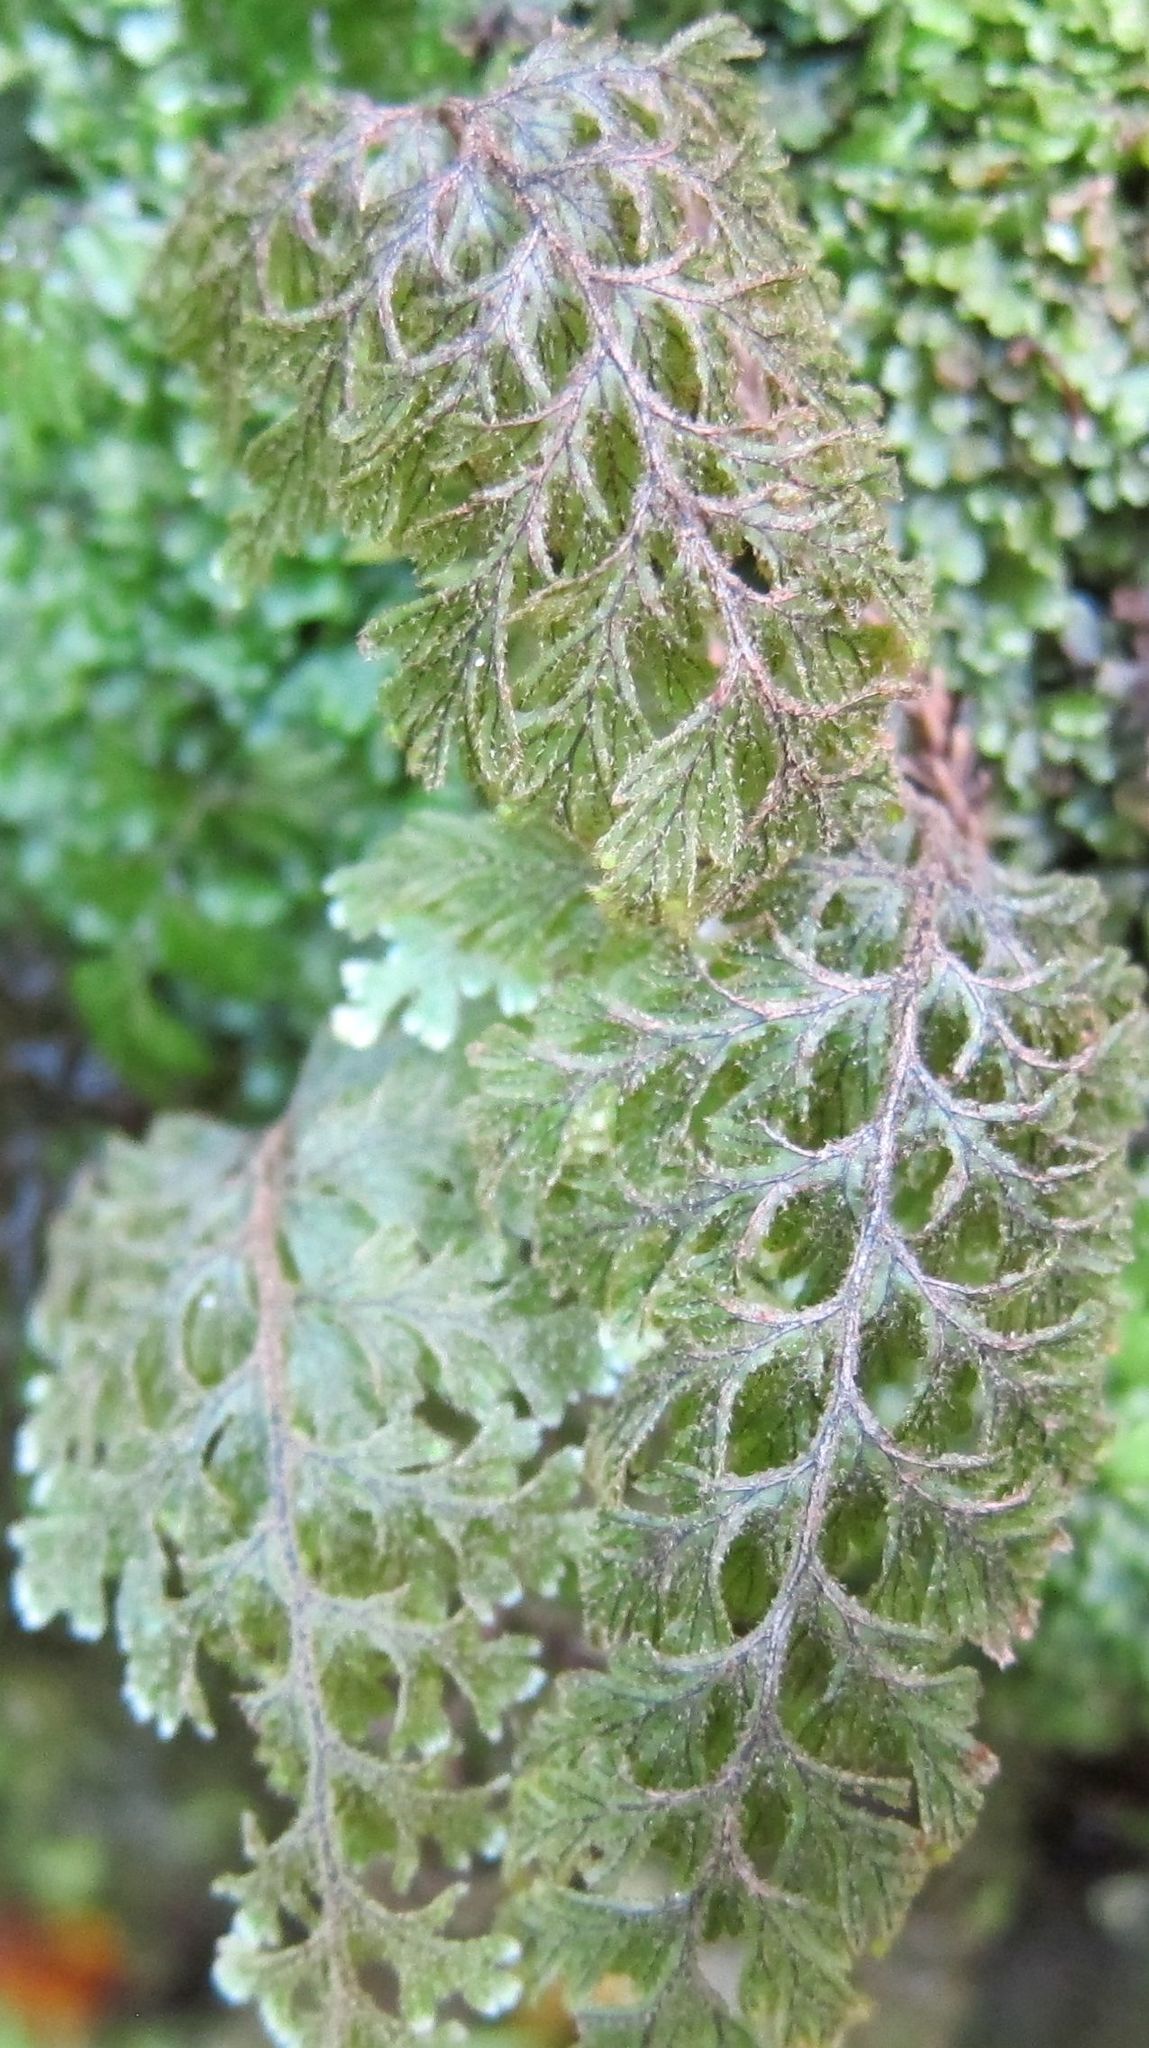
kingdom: Plantae
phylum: Tracheophyta
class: Polypodiopsida
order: Hymenophyllales
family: Hymenophyllaceae
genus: Hymenophyllum
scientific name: Hymenophyllum frankliniae
